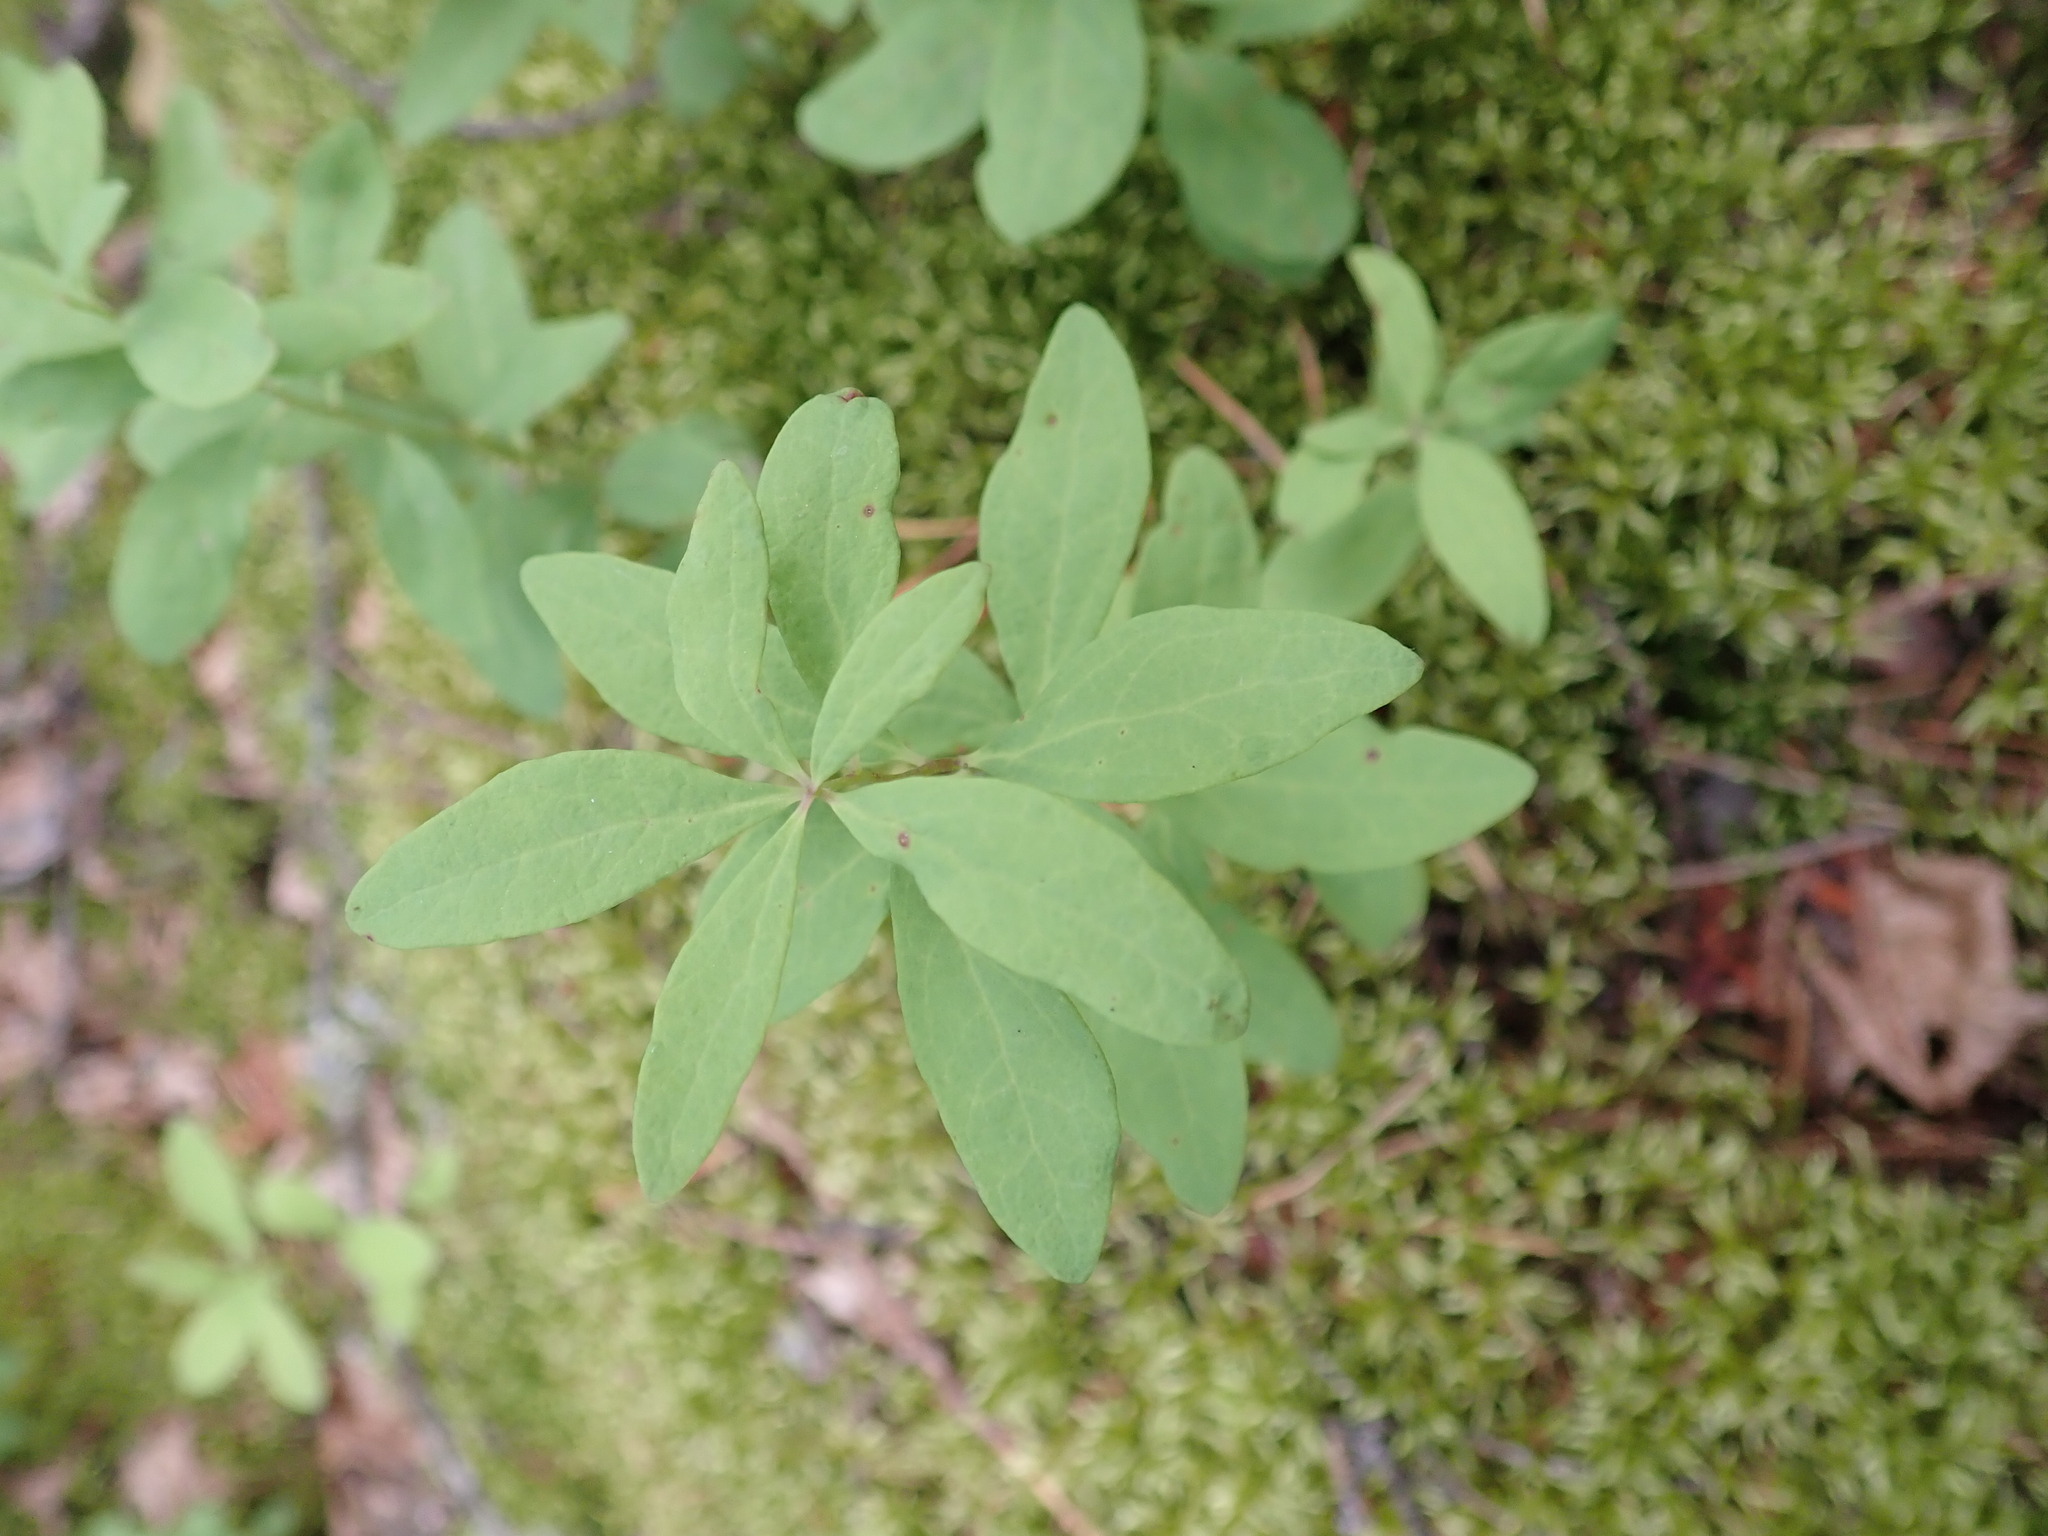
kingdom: Plantae
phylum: Tracheophyta
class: Magnoliopsida
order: Santalales
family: Comandraceae
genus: Geocaulon
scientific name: Geocaulon lividum
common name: Earthberry
